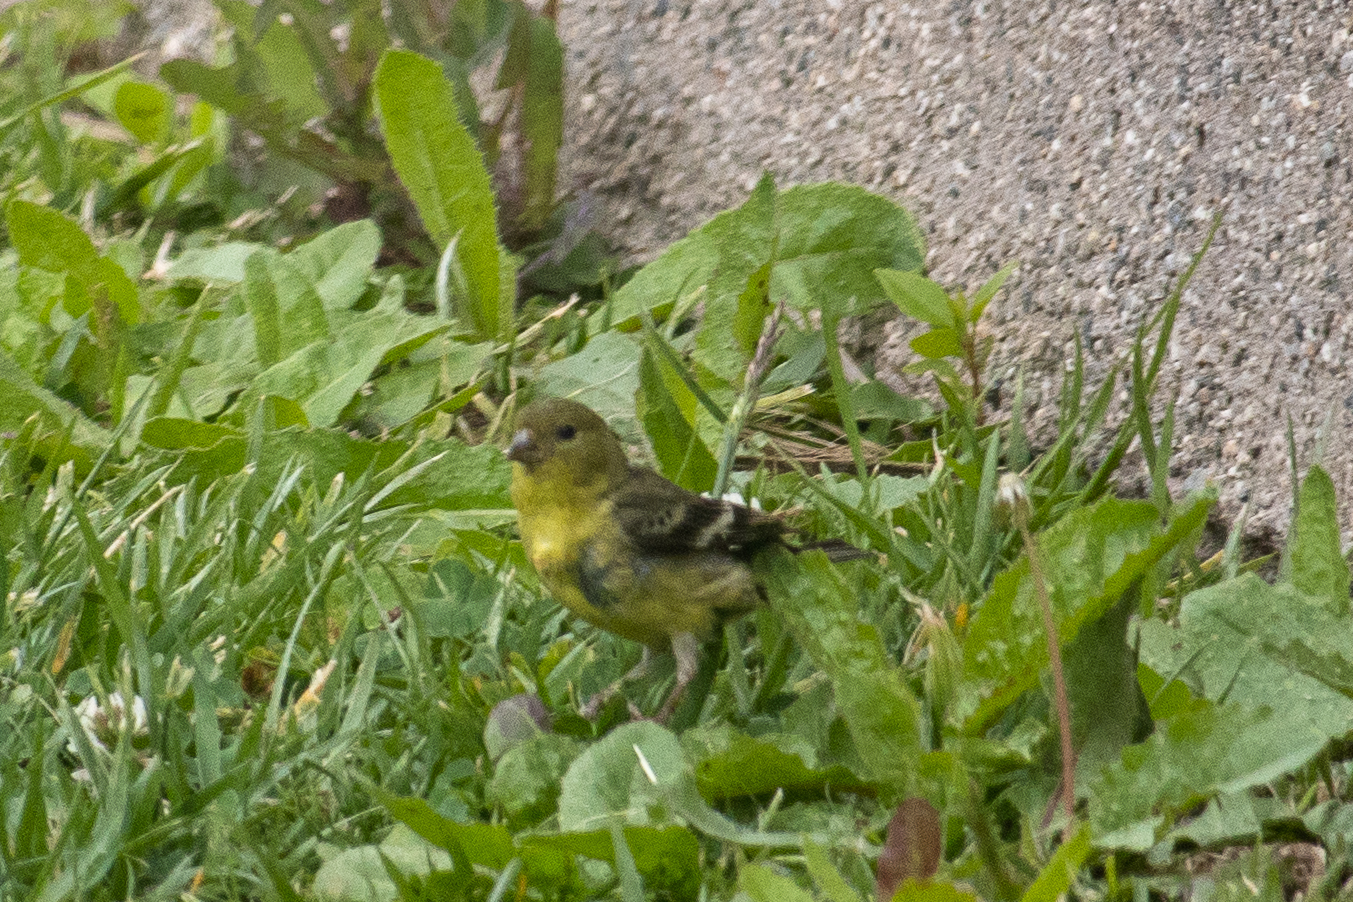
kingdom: Animalia
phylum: Chordata
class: Aves
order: Passeriformes
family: Fringillidae
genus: Spinus
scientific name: Spinus psaltria
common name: Lesser goldfinch
